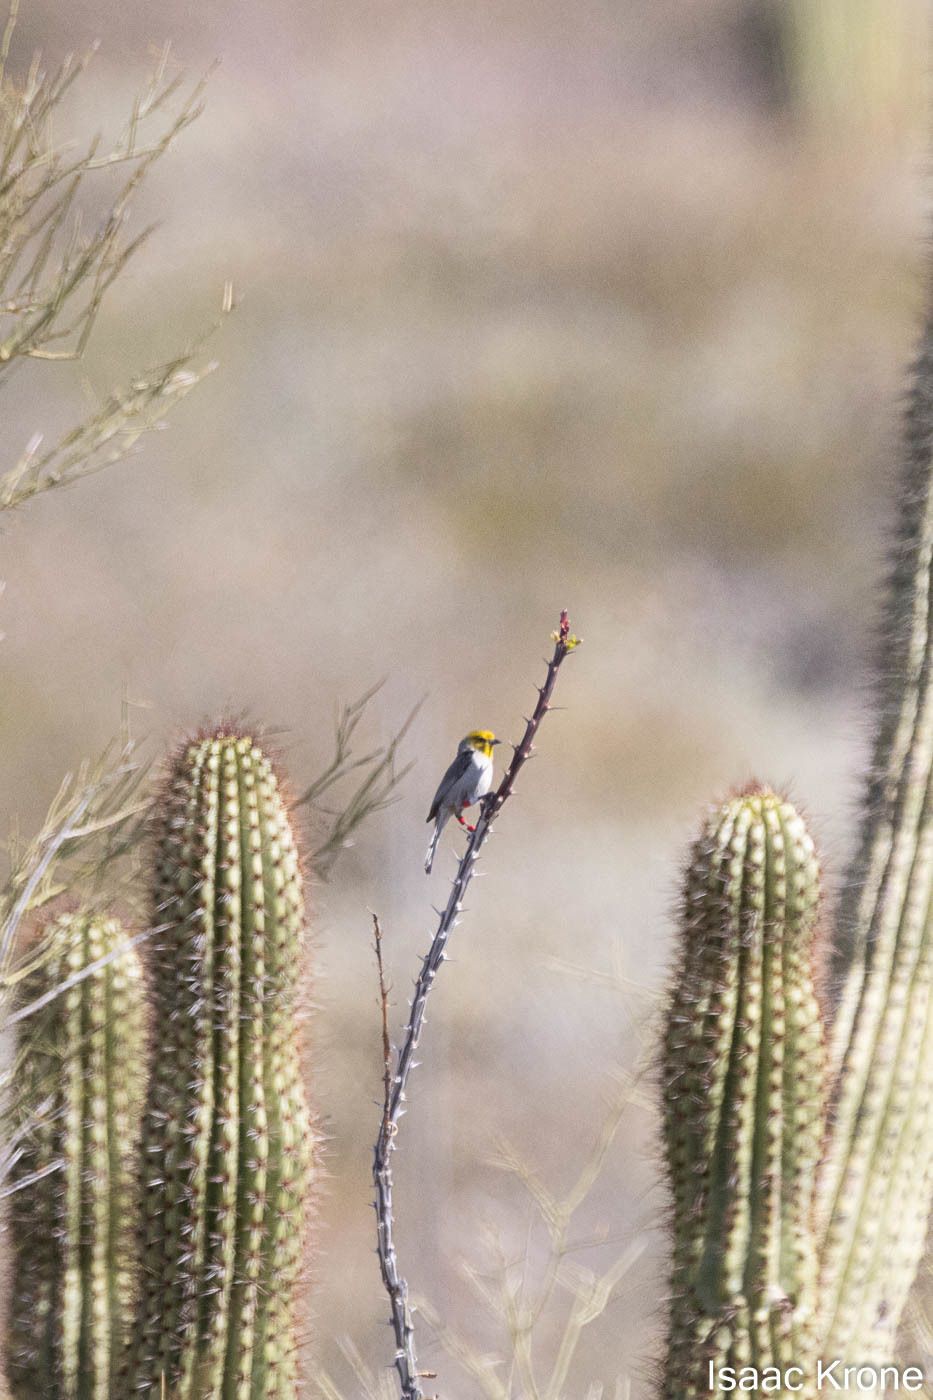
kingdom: Animalia
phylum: Chordata
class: Aves
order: Passeriformes
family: Remizidae
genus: Auriparus
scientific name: Auriparus flaviceps
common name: Verdin
